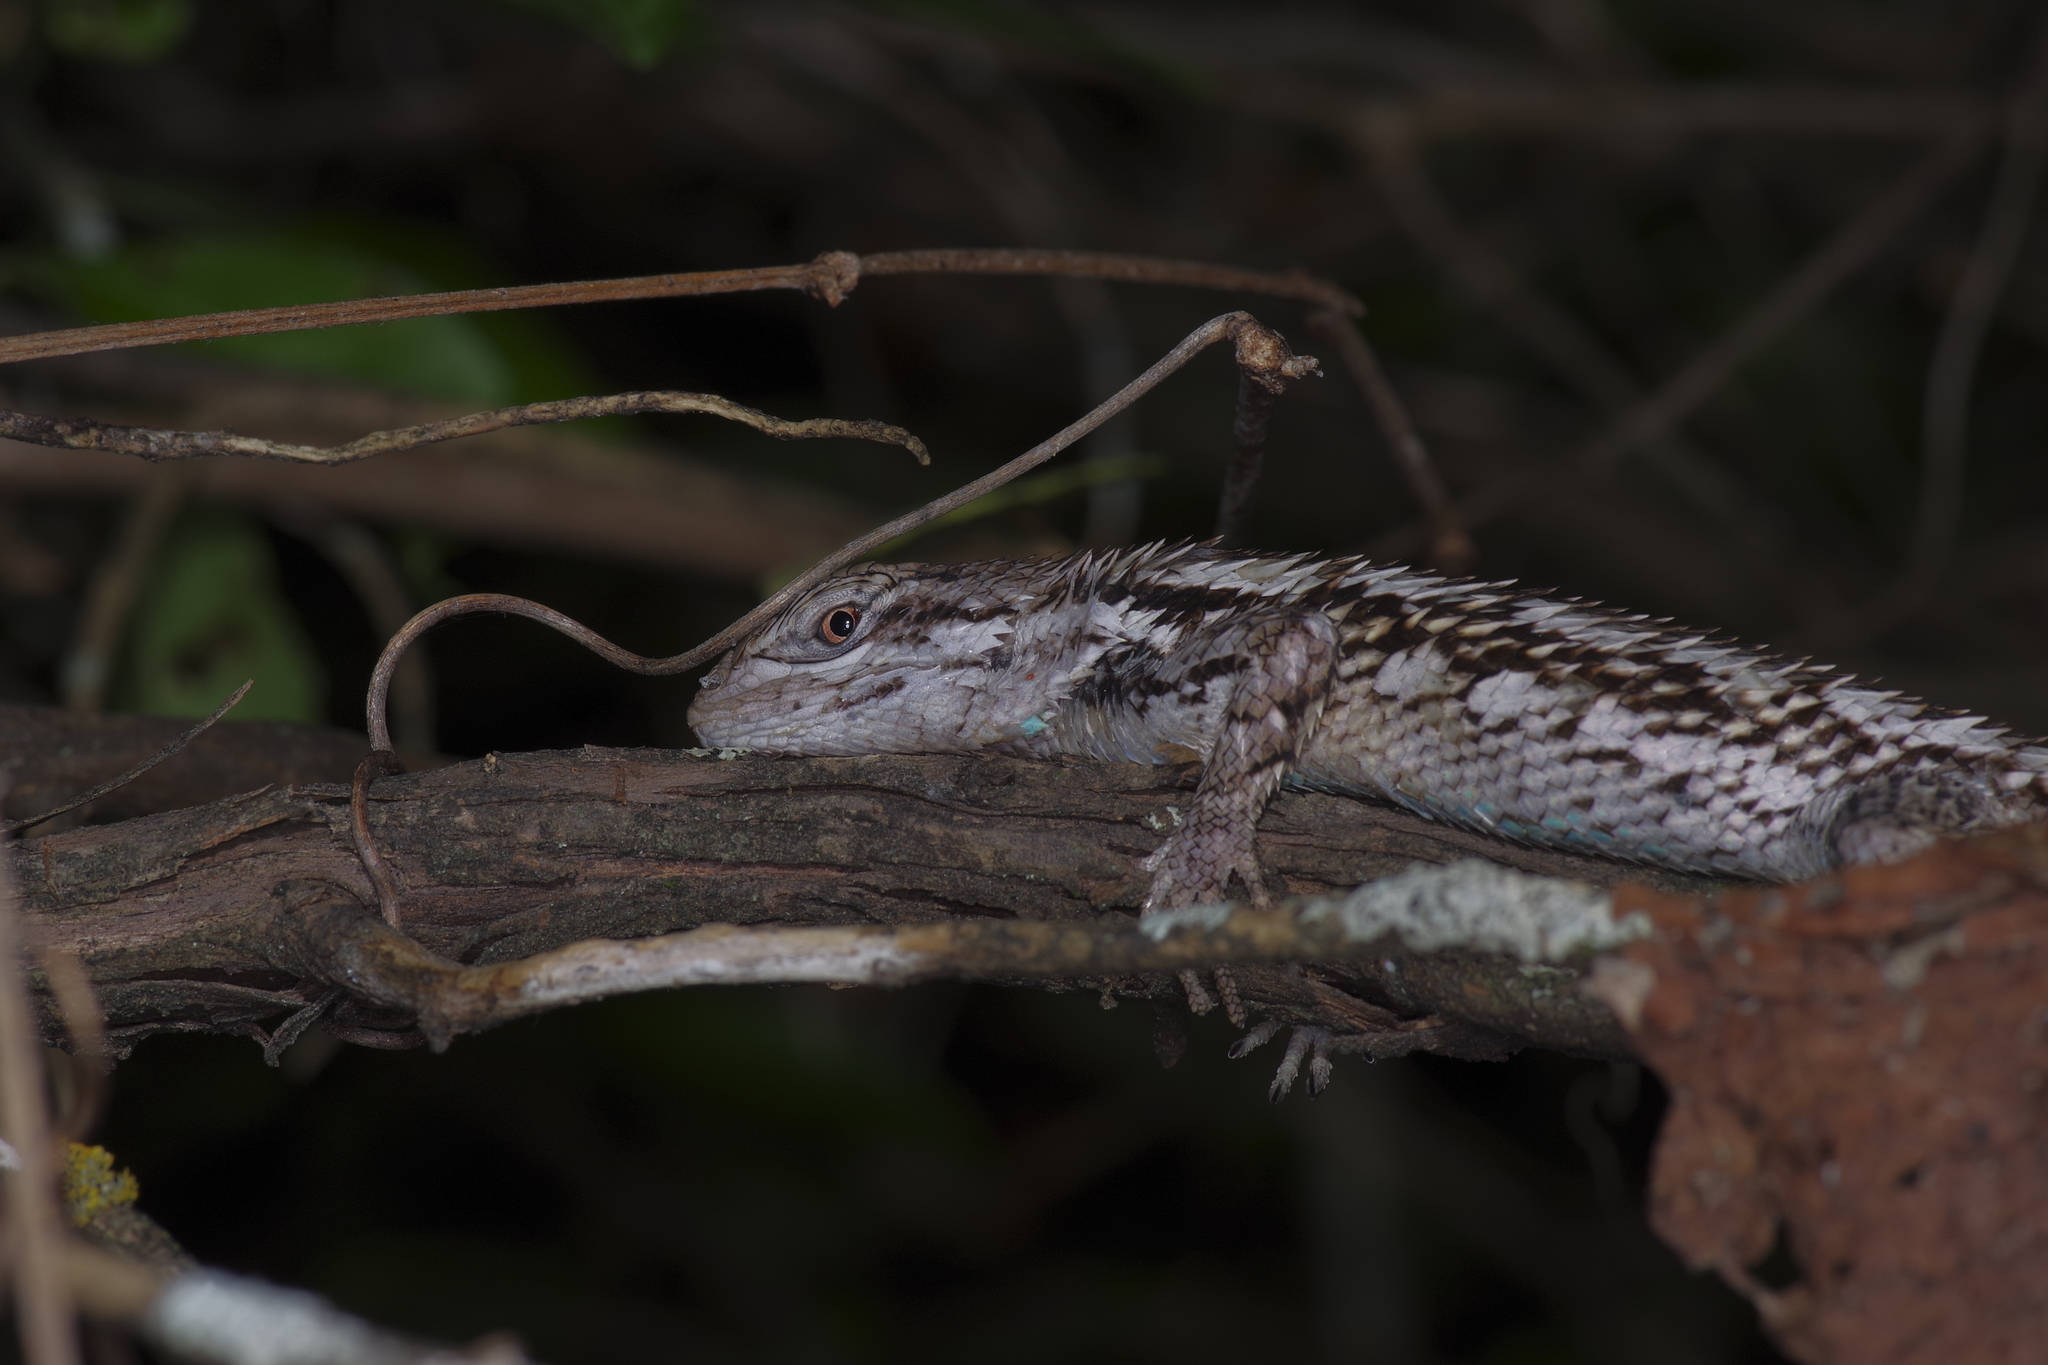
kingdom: Animalia
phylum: Chordata
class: Squamata
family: Phrynosomatidae
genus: Sceloporus
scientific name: Sceloporus olivaceus
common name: Texas spiny lizard
